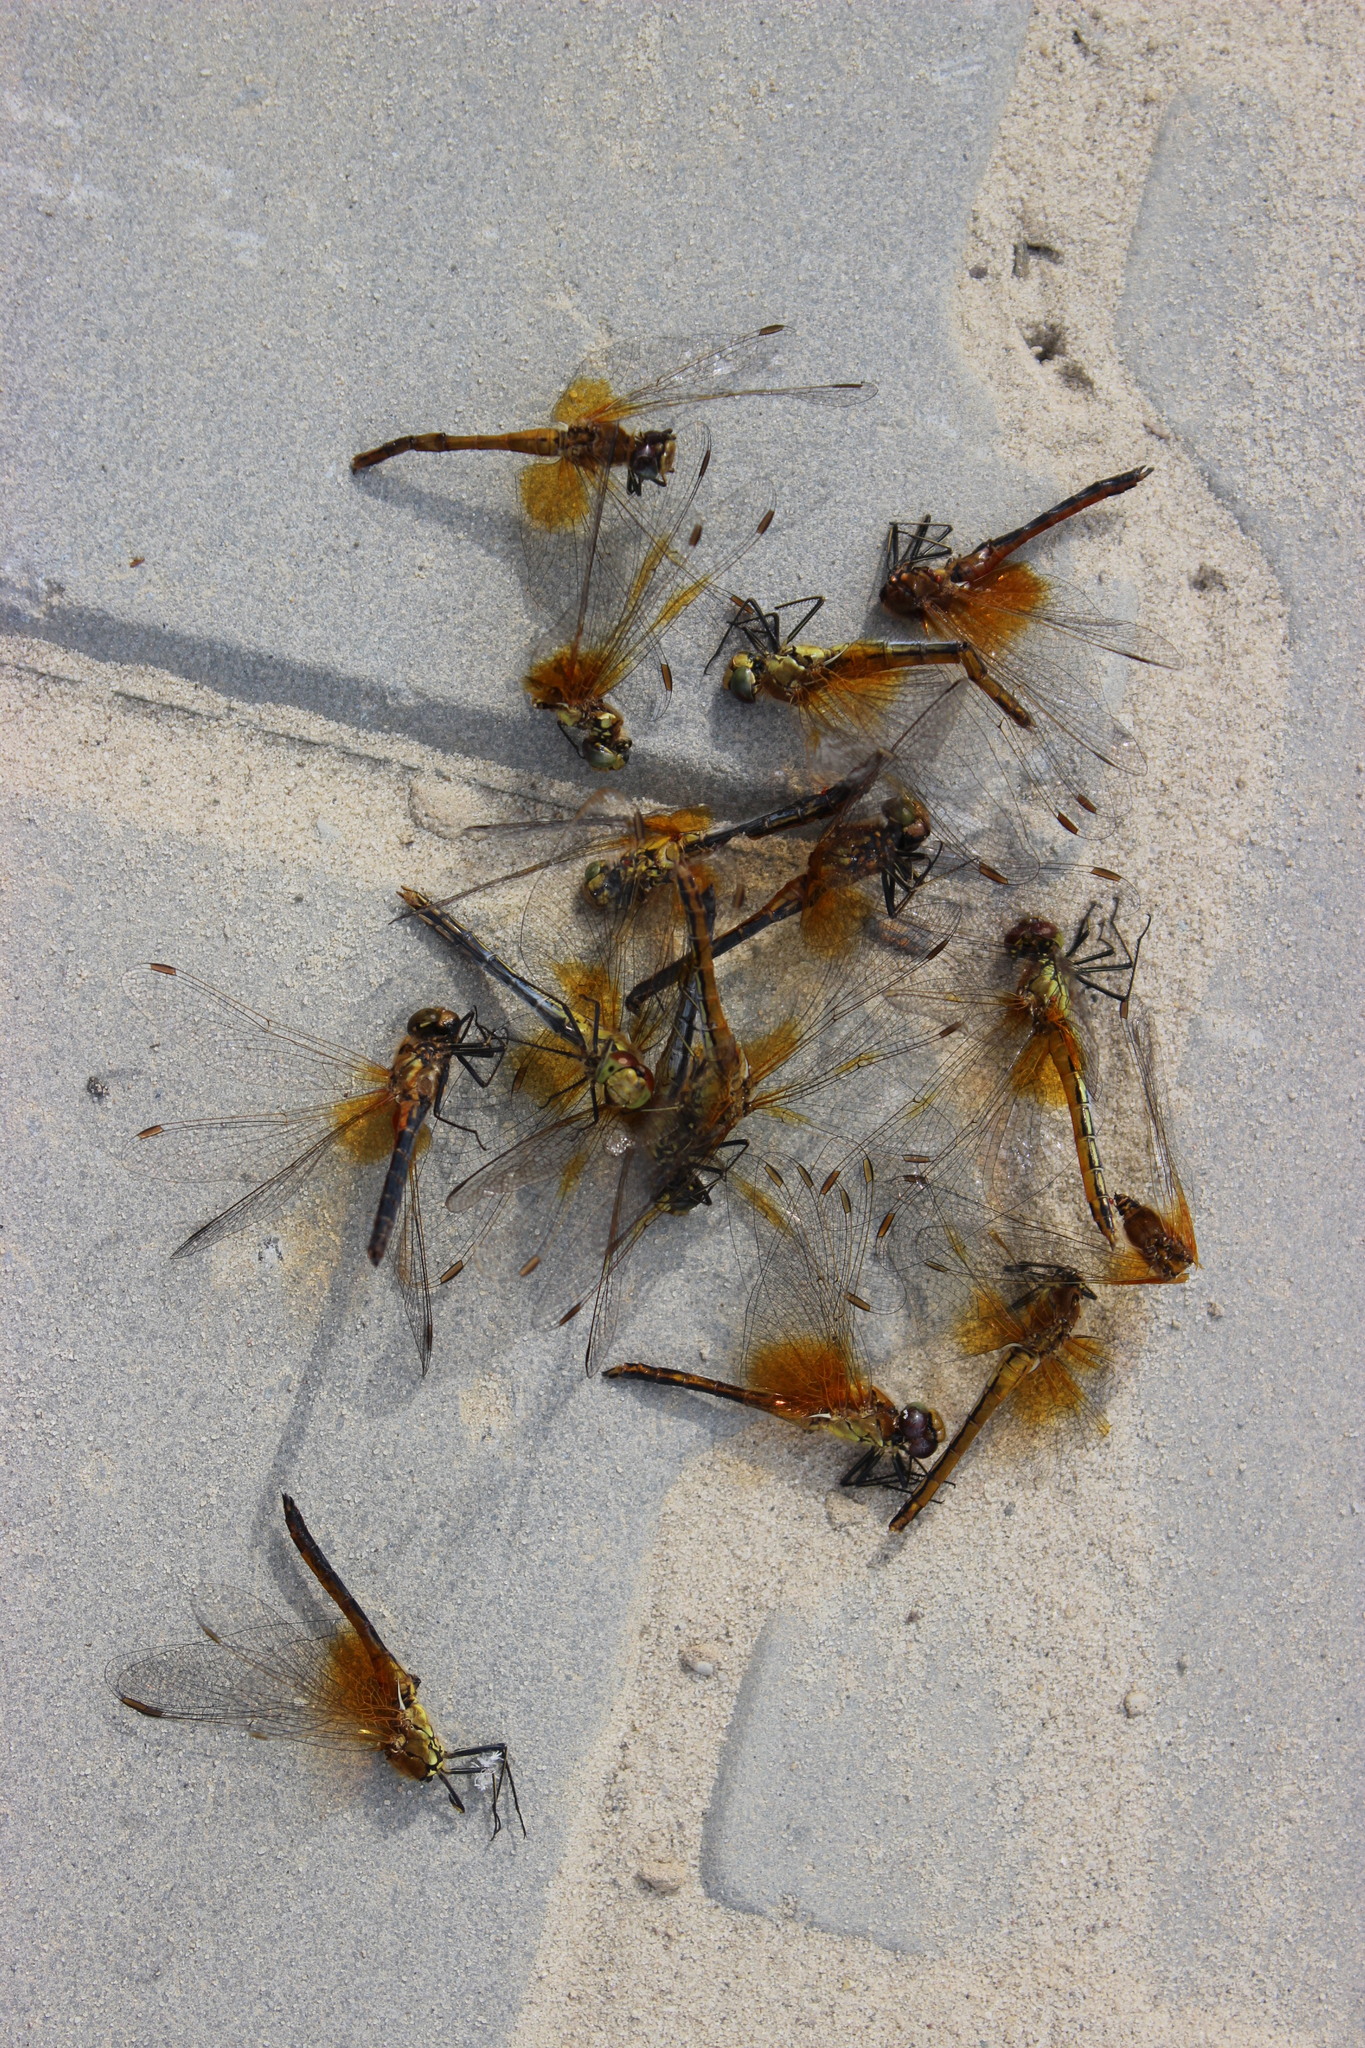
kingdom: Animalia
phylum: Arthropoda
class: Insecta
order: Odonata
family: Libellulidae
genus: Sympetrum
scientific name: Sympetrum flaveolum
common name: Yellow-winged darter
